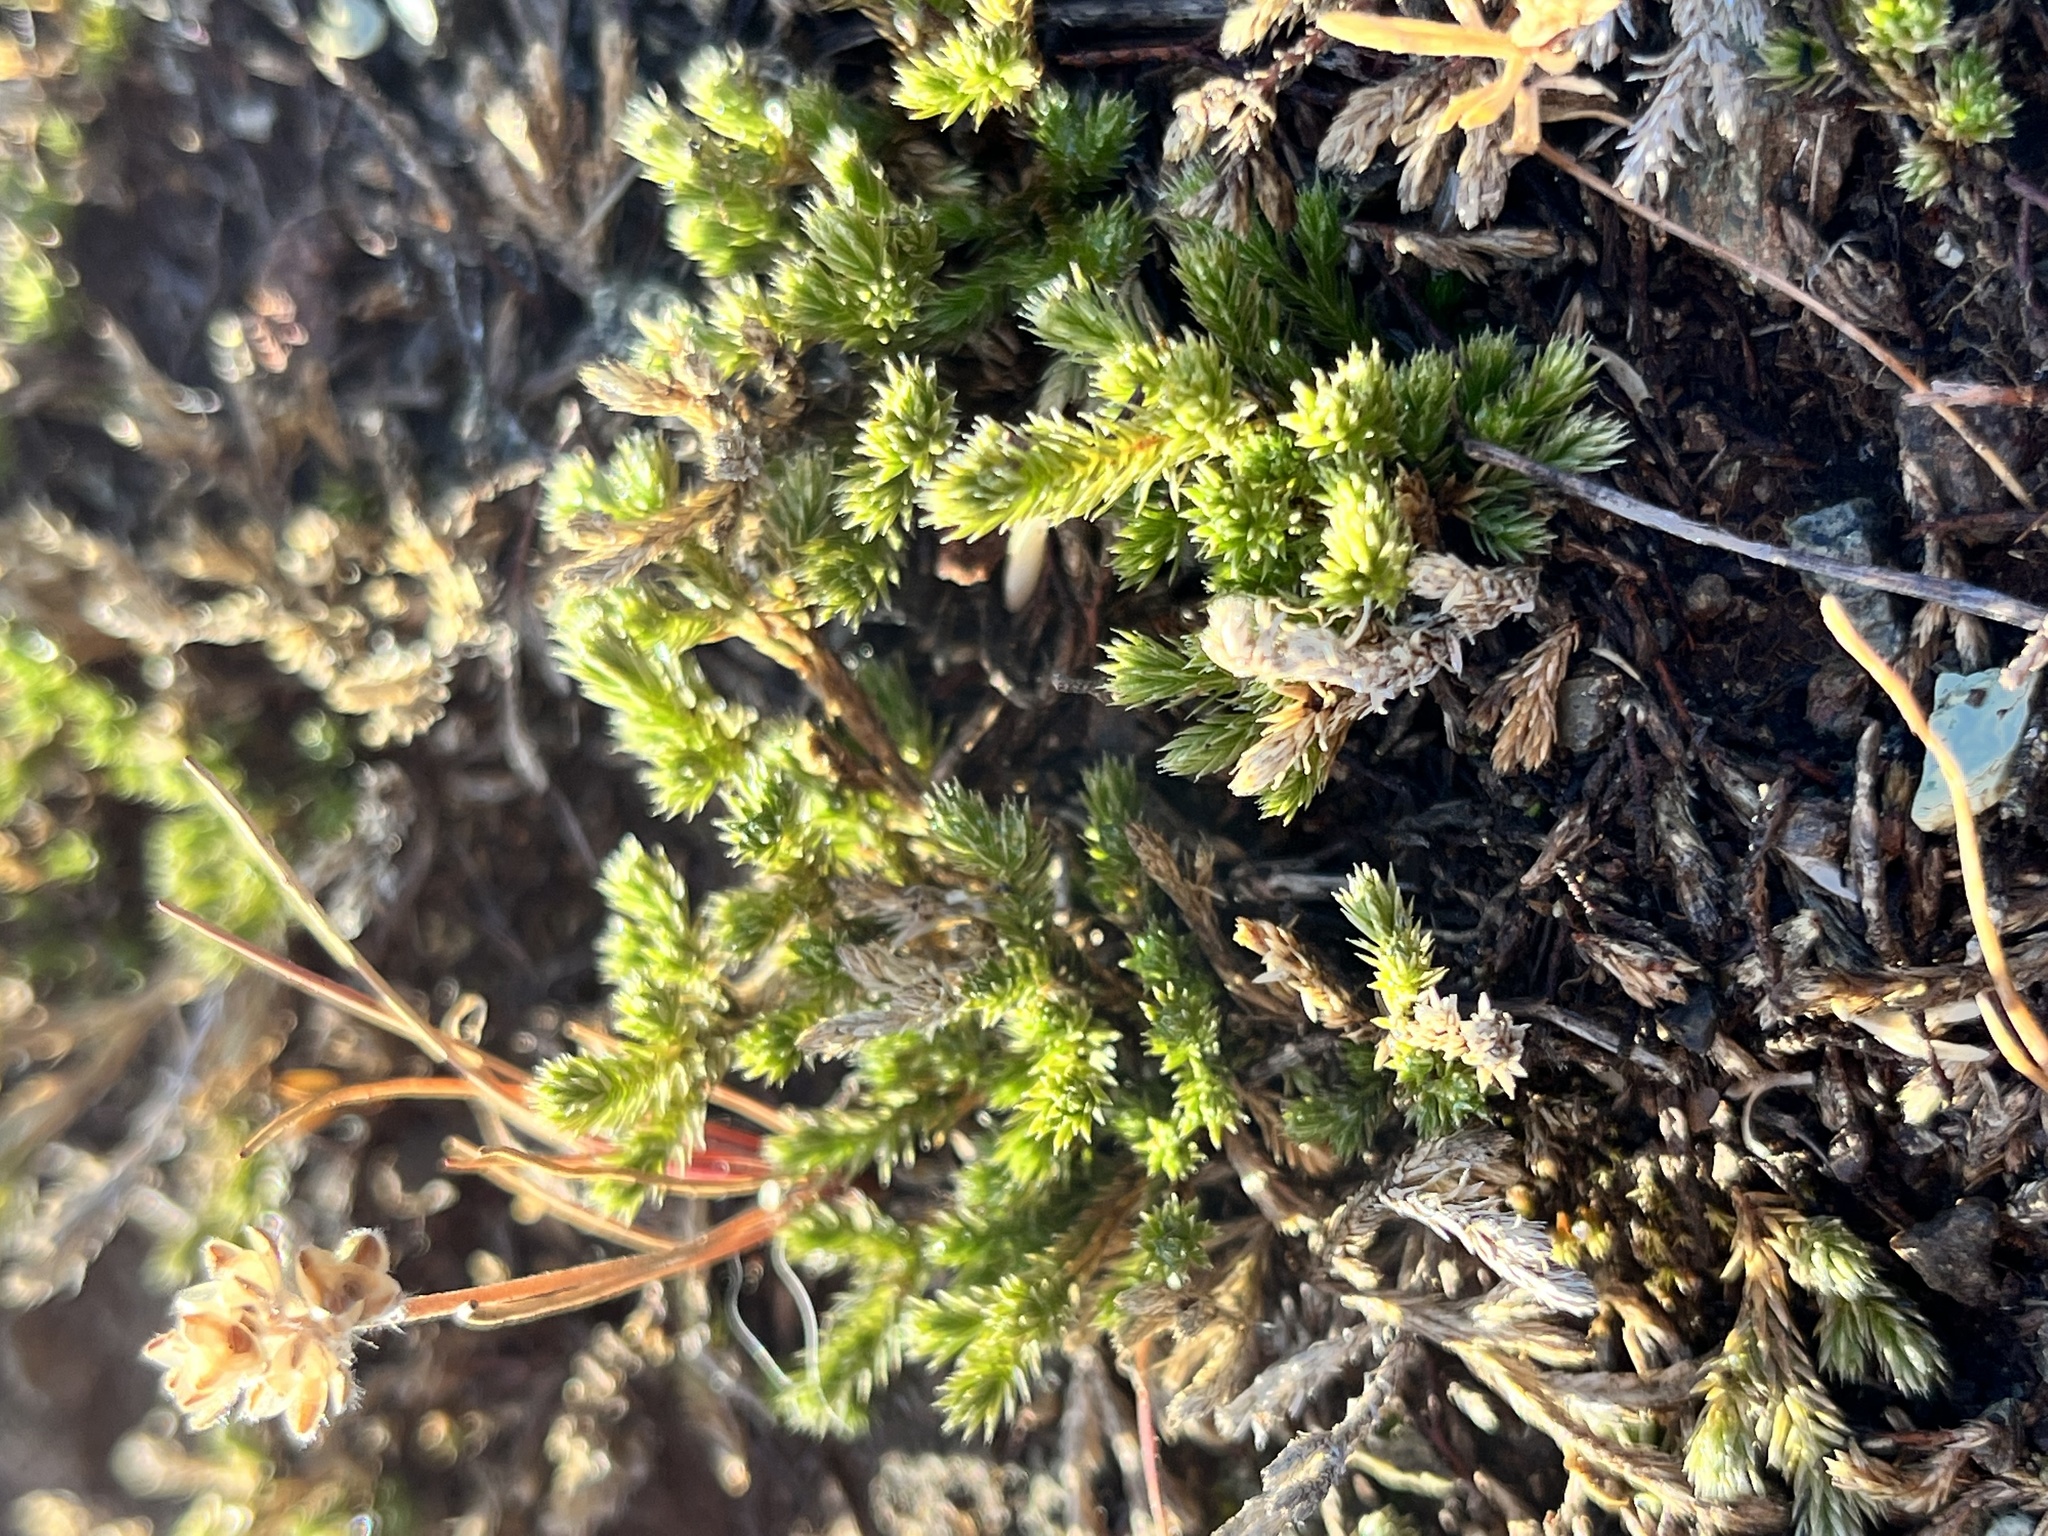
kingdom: Plantae
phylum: Tracheophyta
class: Lycopodiopsida
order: Selaginellales
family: Selaginellaceae
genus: Selaginella
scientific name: Selaginella bigelovii
